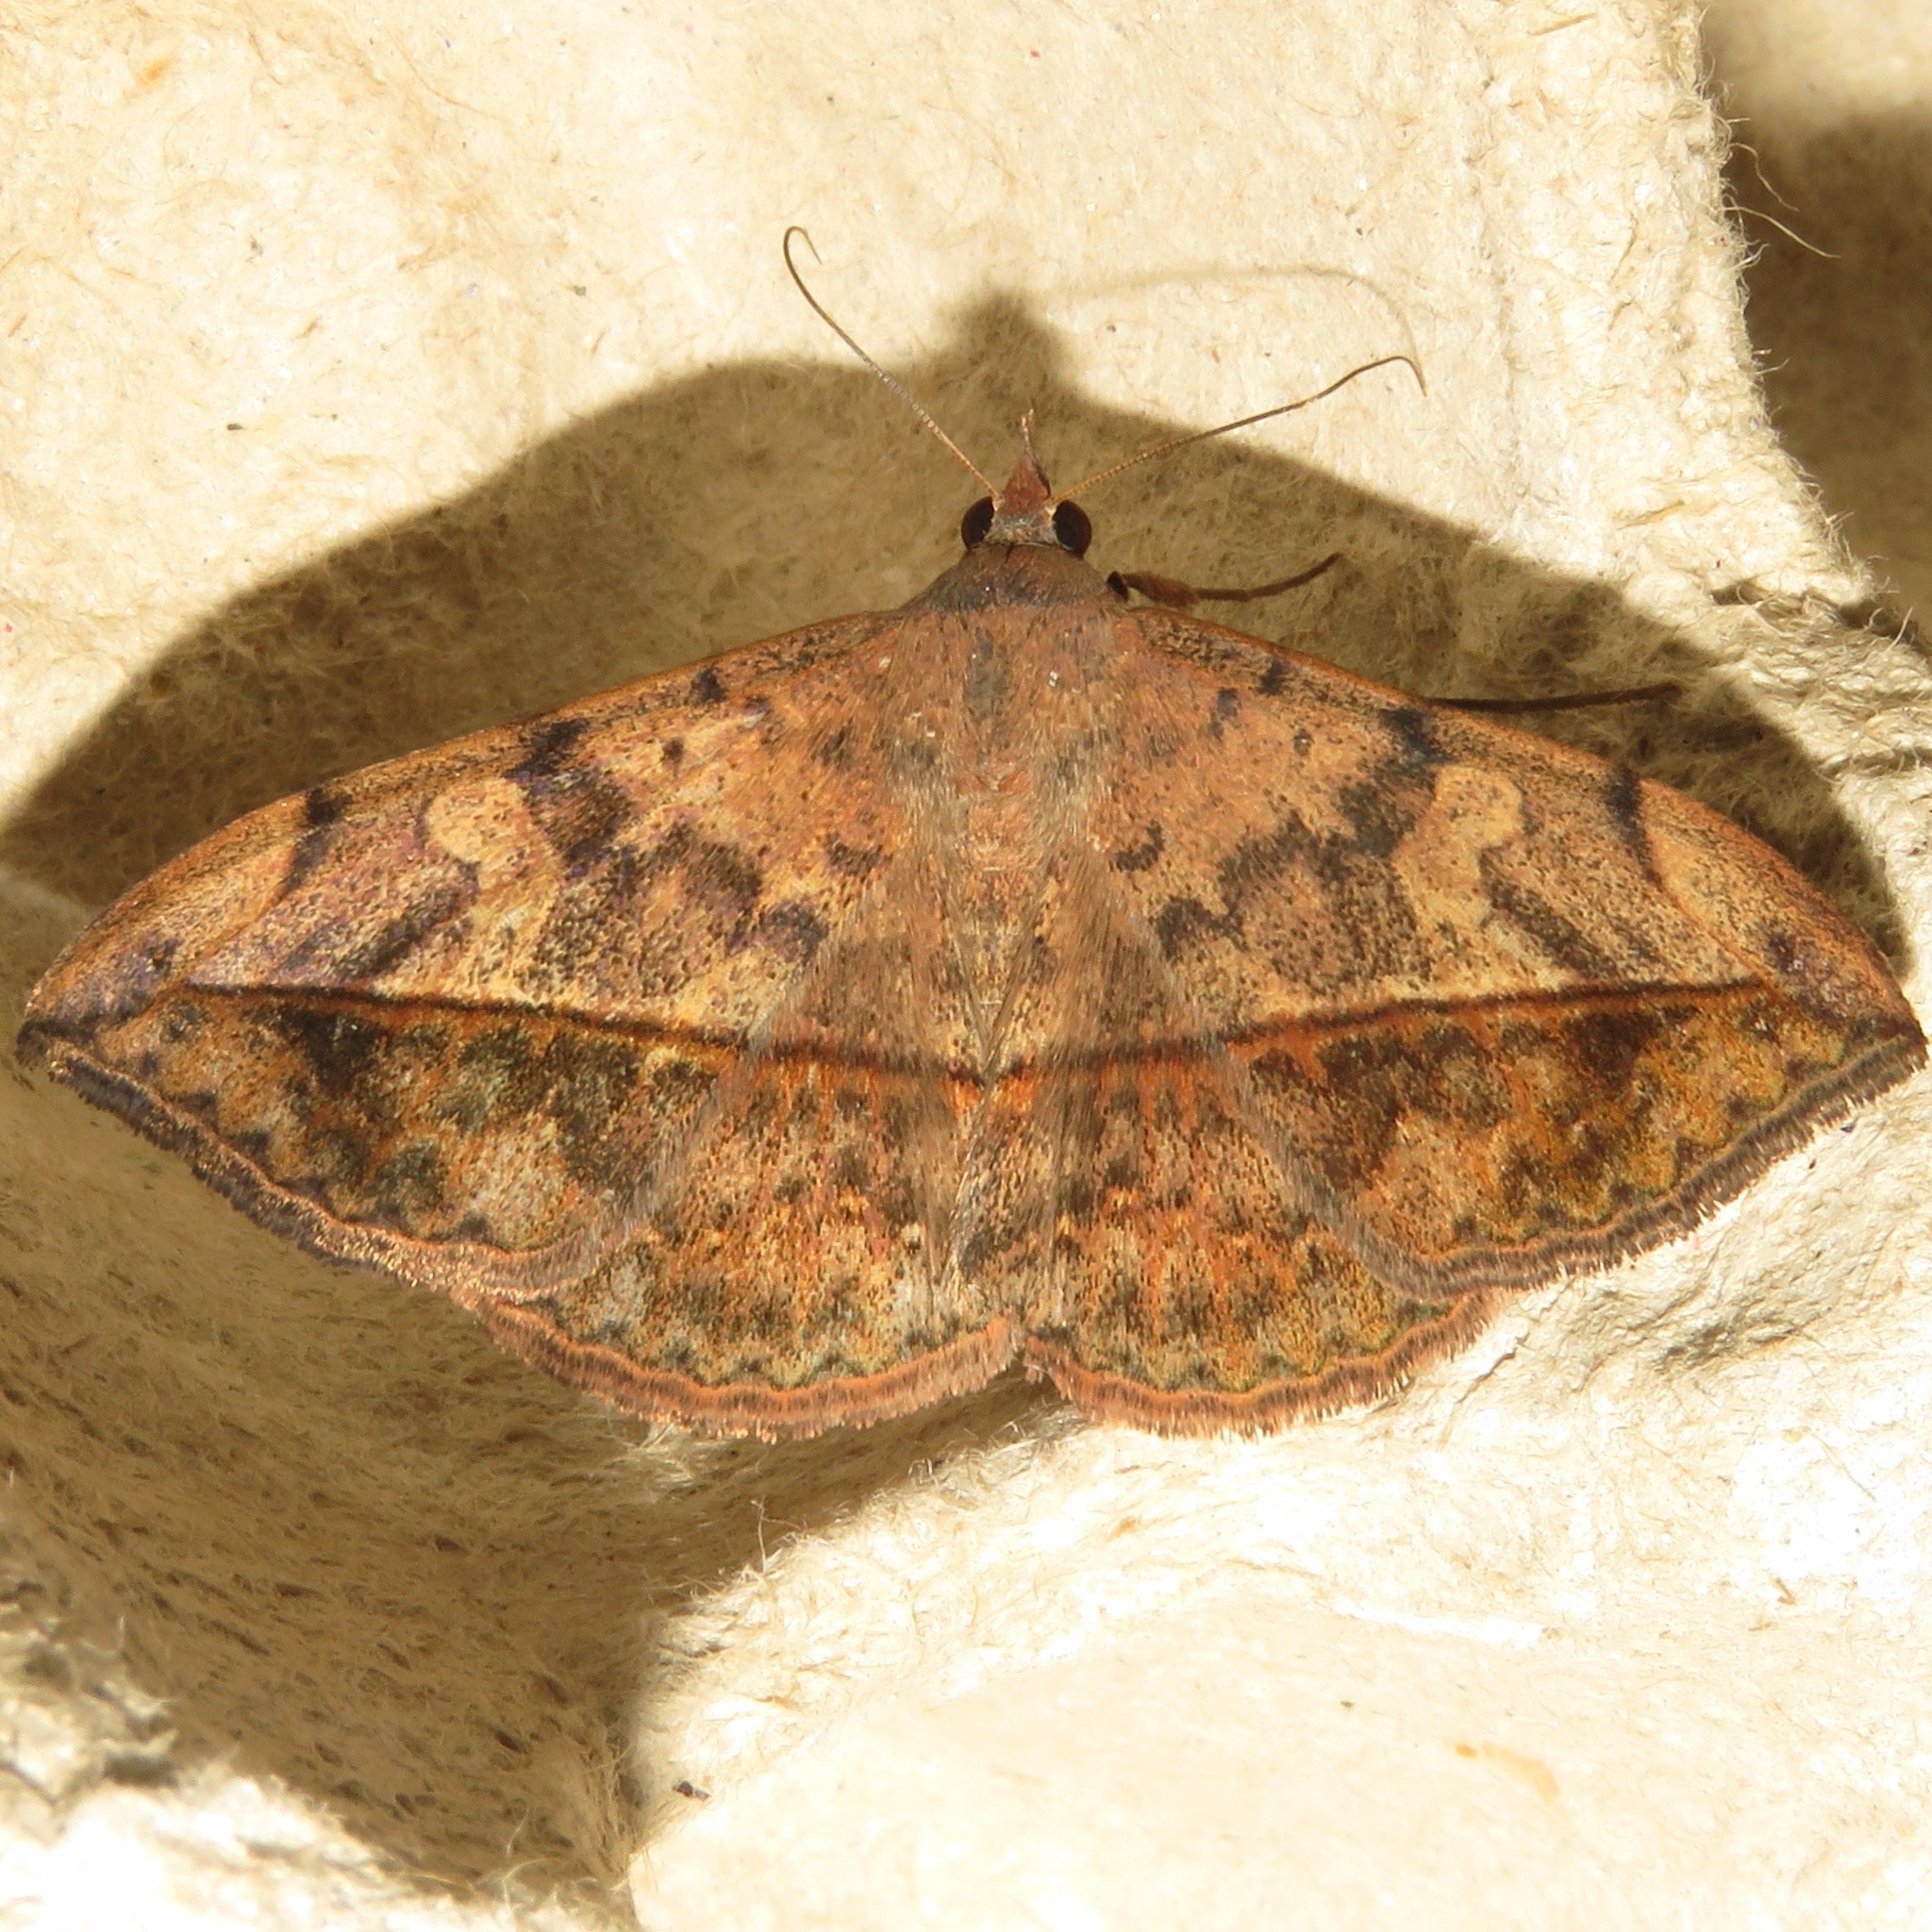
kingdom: Animalia
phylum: Arthropoda
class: Insecta
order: Lepidoptera
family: Erebidae
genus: Anticarsia
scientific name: Anticarsia gemmatalis
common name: Cutworm moth
